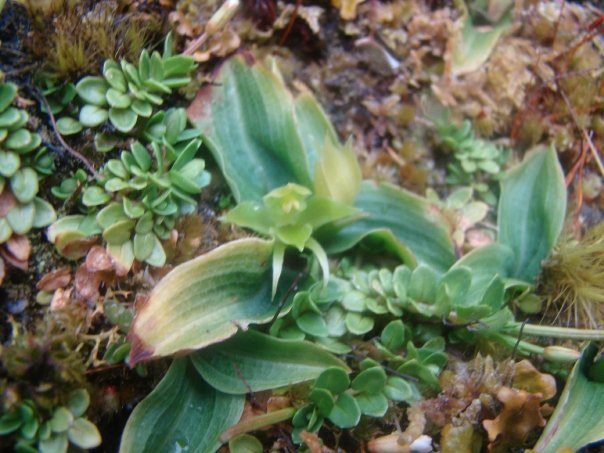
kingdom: Plantae
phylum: Tracheophyta
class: Liliopsida
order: Asparagales
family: Orchidaceae
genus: Chiloglottis
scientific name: Chiloglottis cornuta
